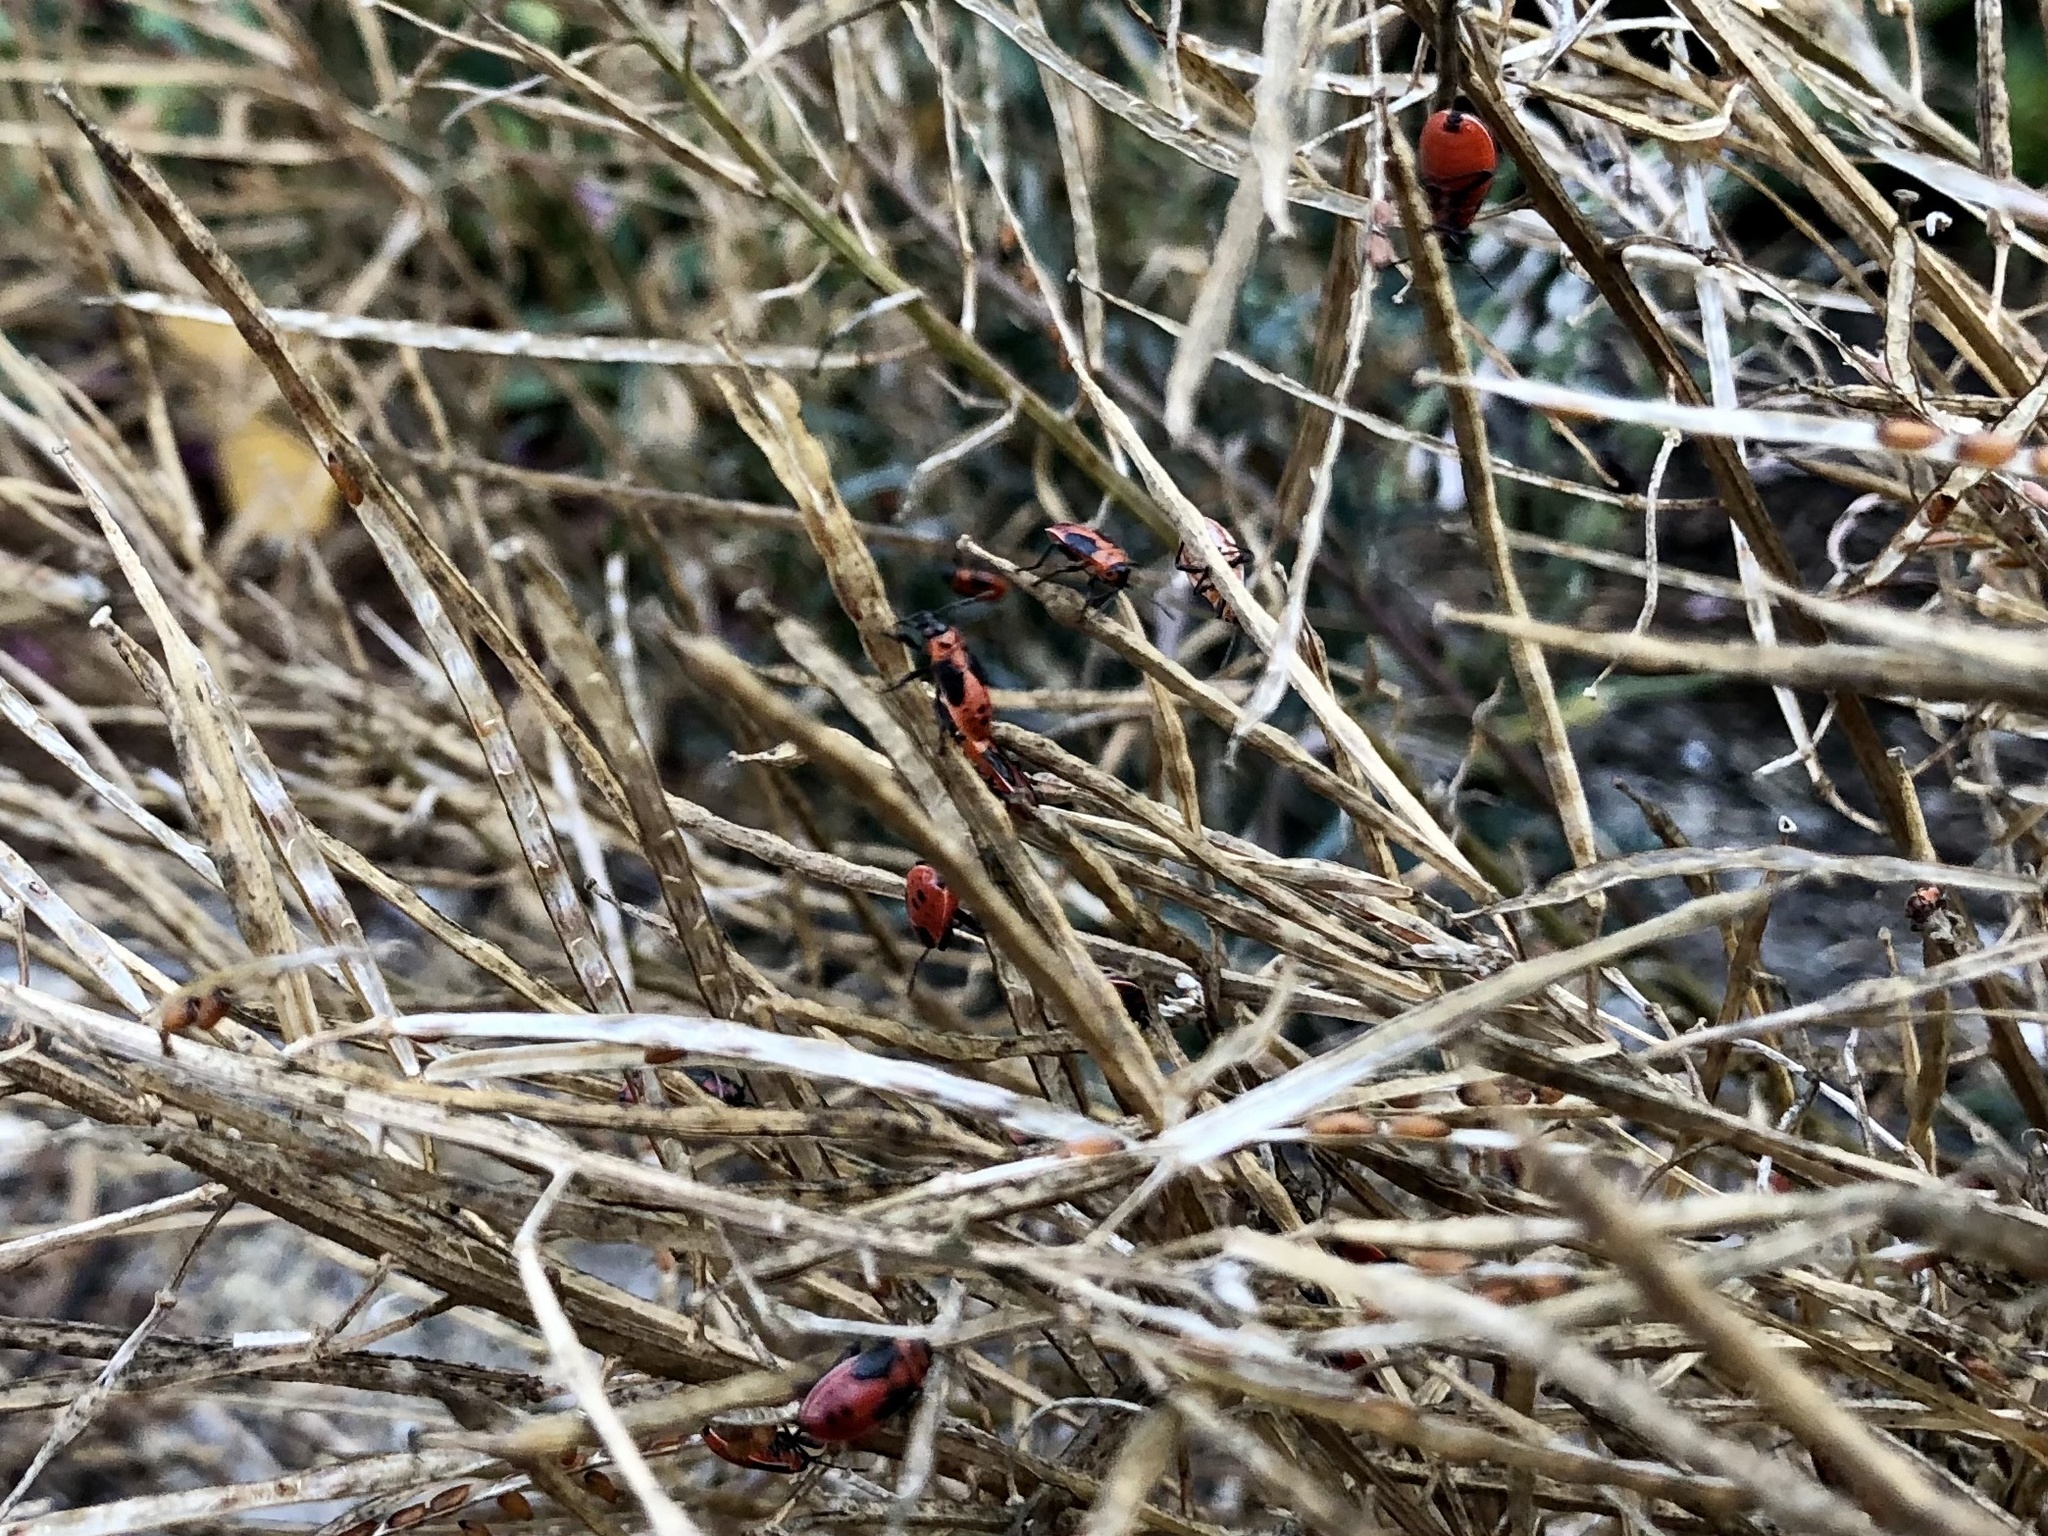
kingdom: Animalia
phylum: Arthropoda
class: Insecta
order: Hemiptera
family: Lygaeidae
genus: Lygaeus
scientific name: Lygaeus
